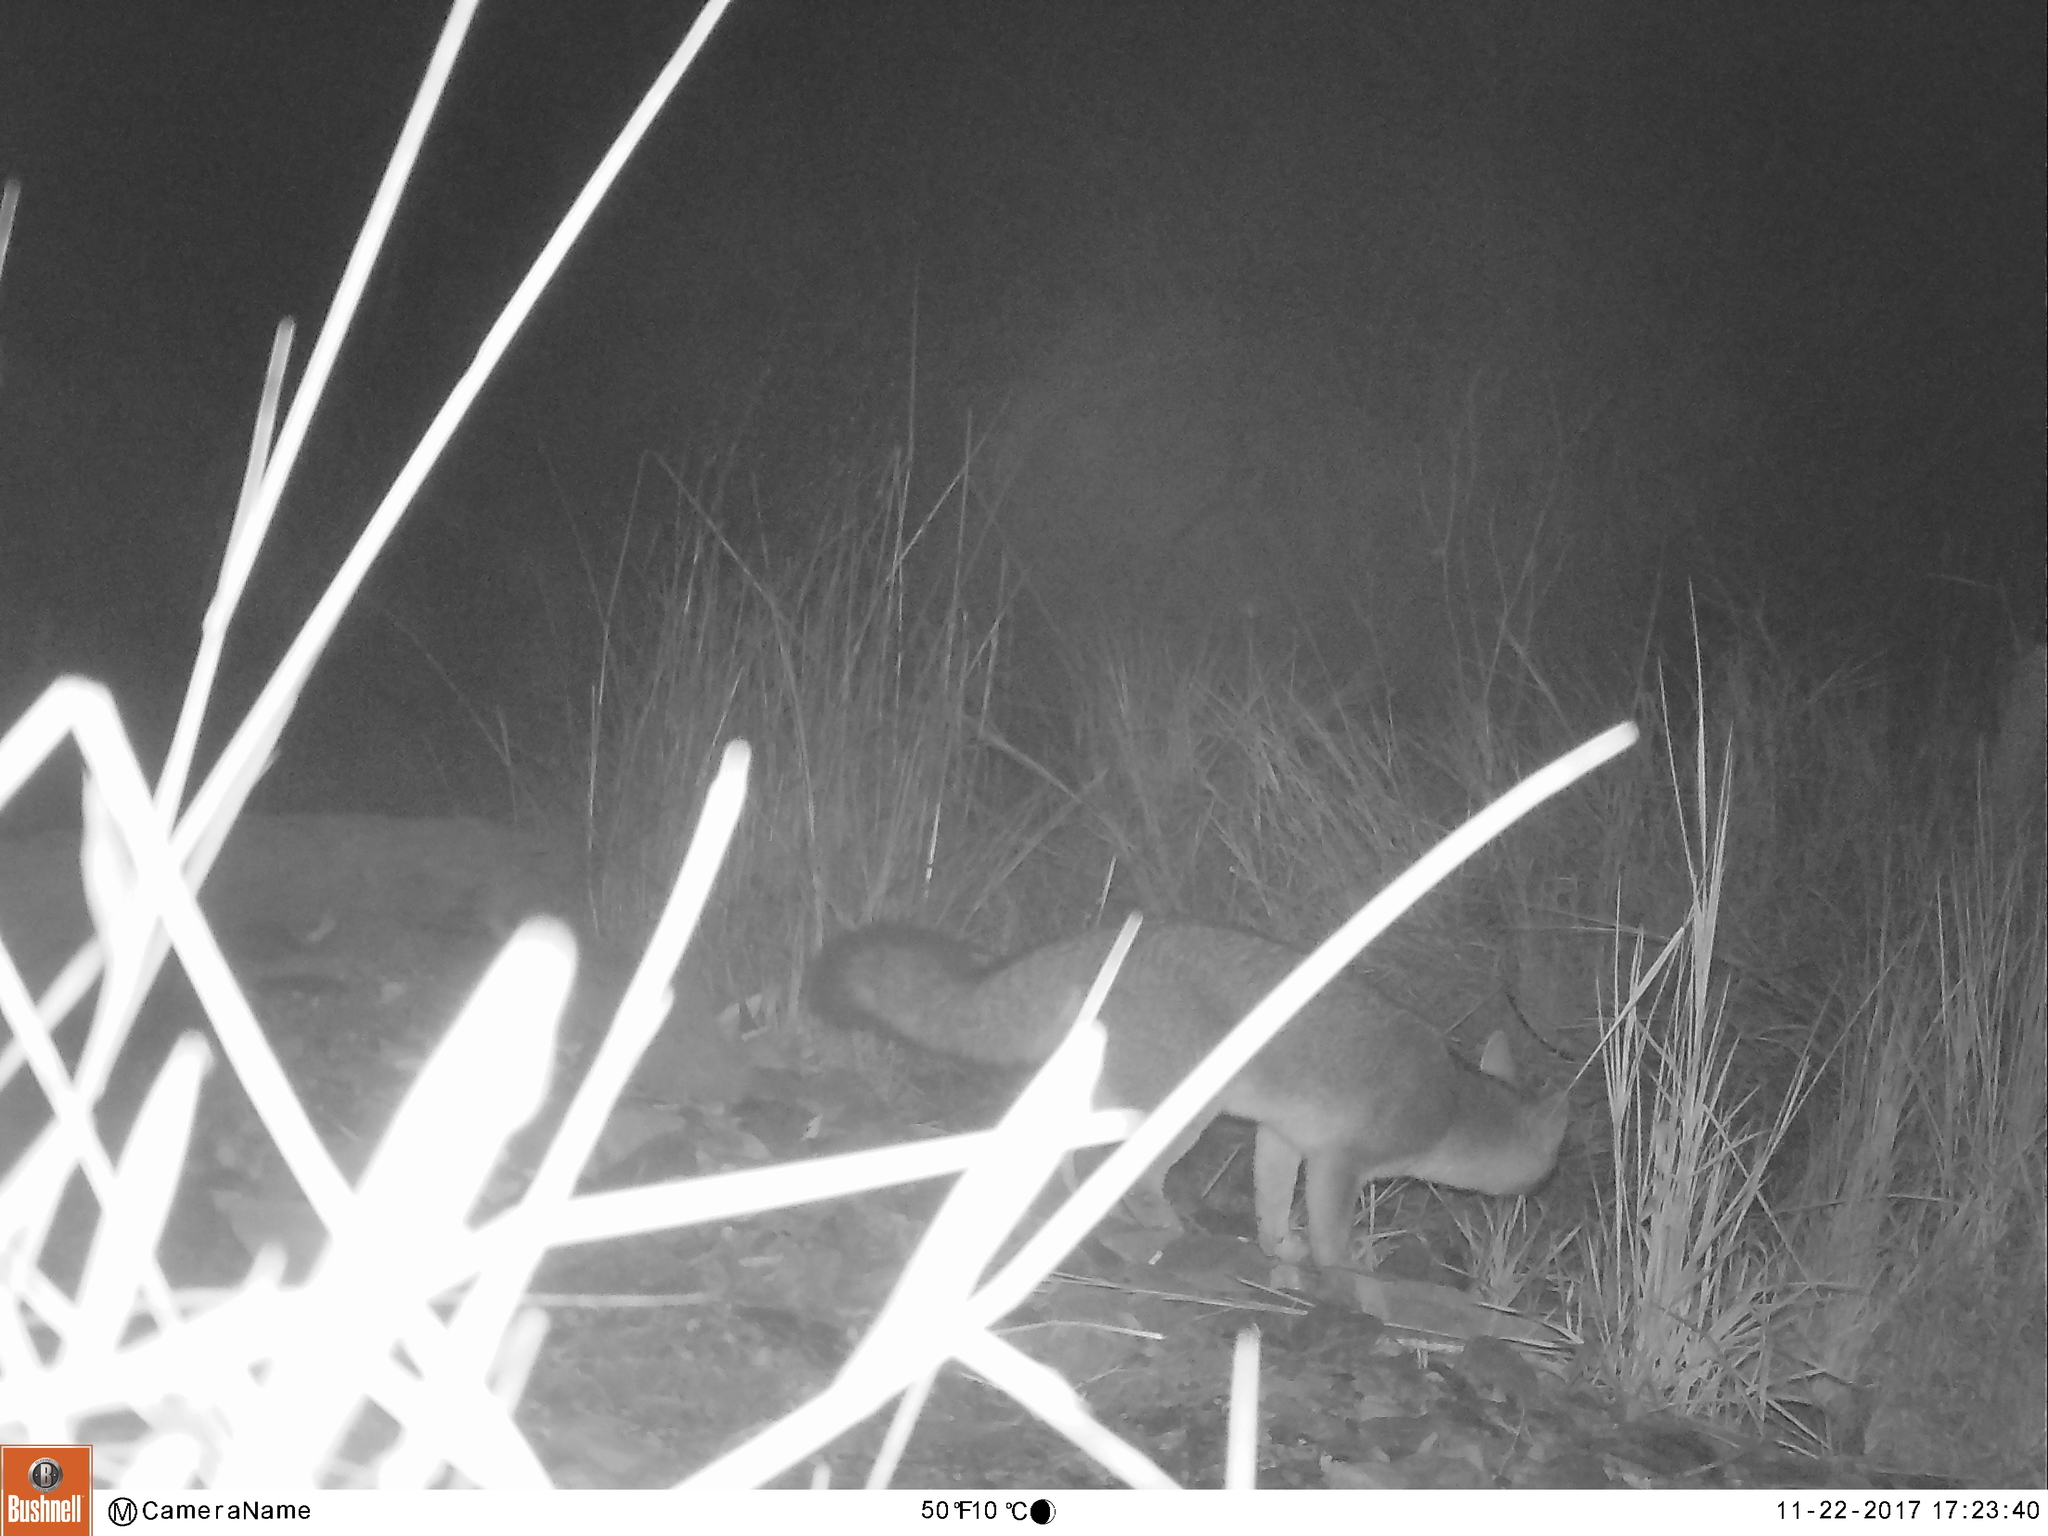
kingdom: Animalia
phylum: Chordata
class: Mammalia
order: Carnivora
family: Canidae
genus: Urocyon
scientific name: Urocyon cinereoargenteus
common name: Gray fox
